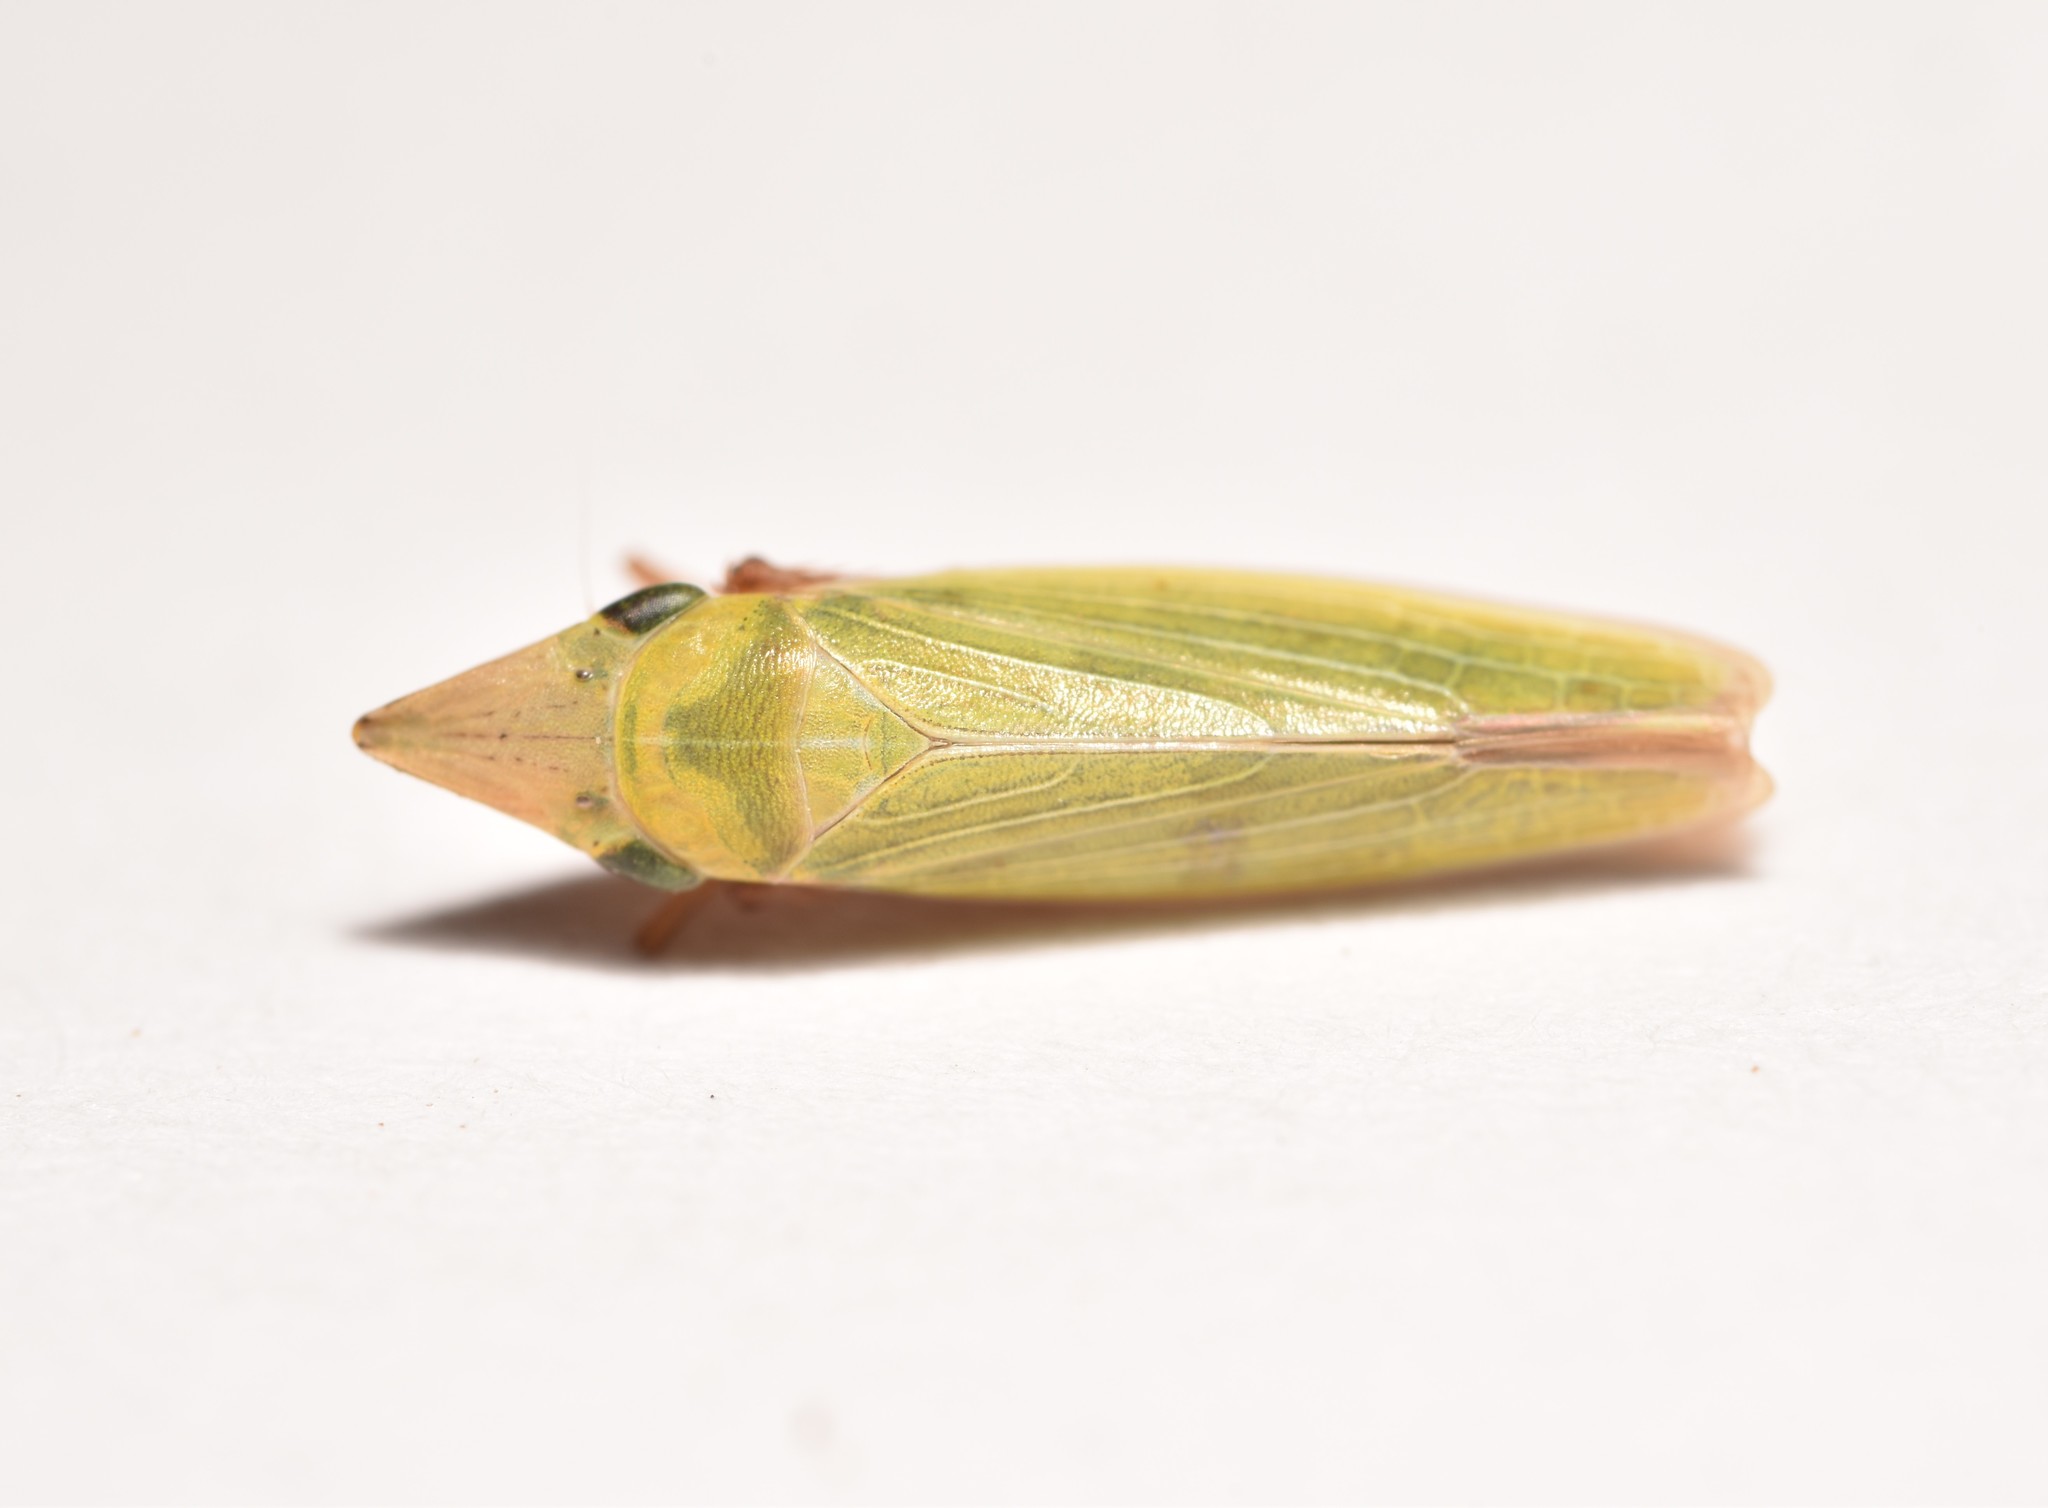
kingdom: Animalia
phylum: Arthropoda
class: Insecta
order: Hemiptera
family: Cicadellidae
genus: Draeculacephala
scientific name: Draeculacephala navicula
